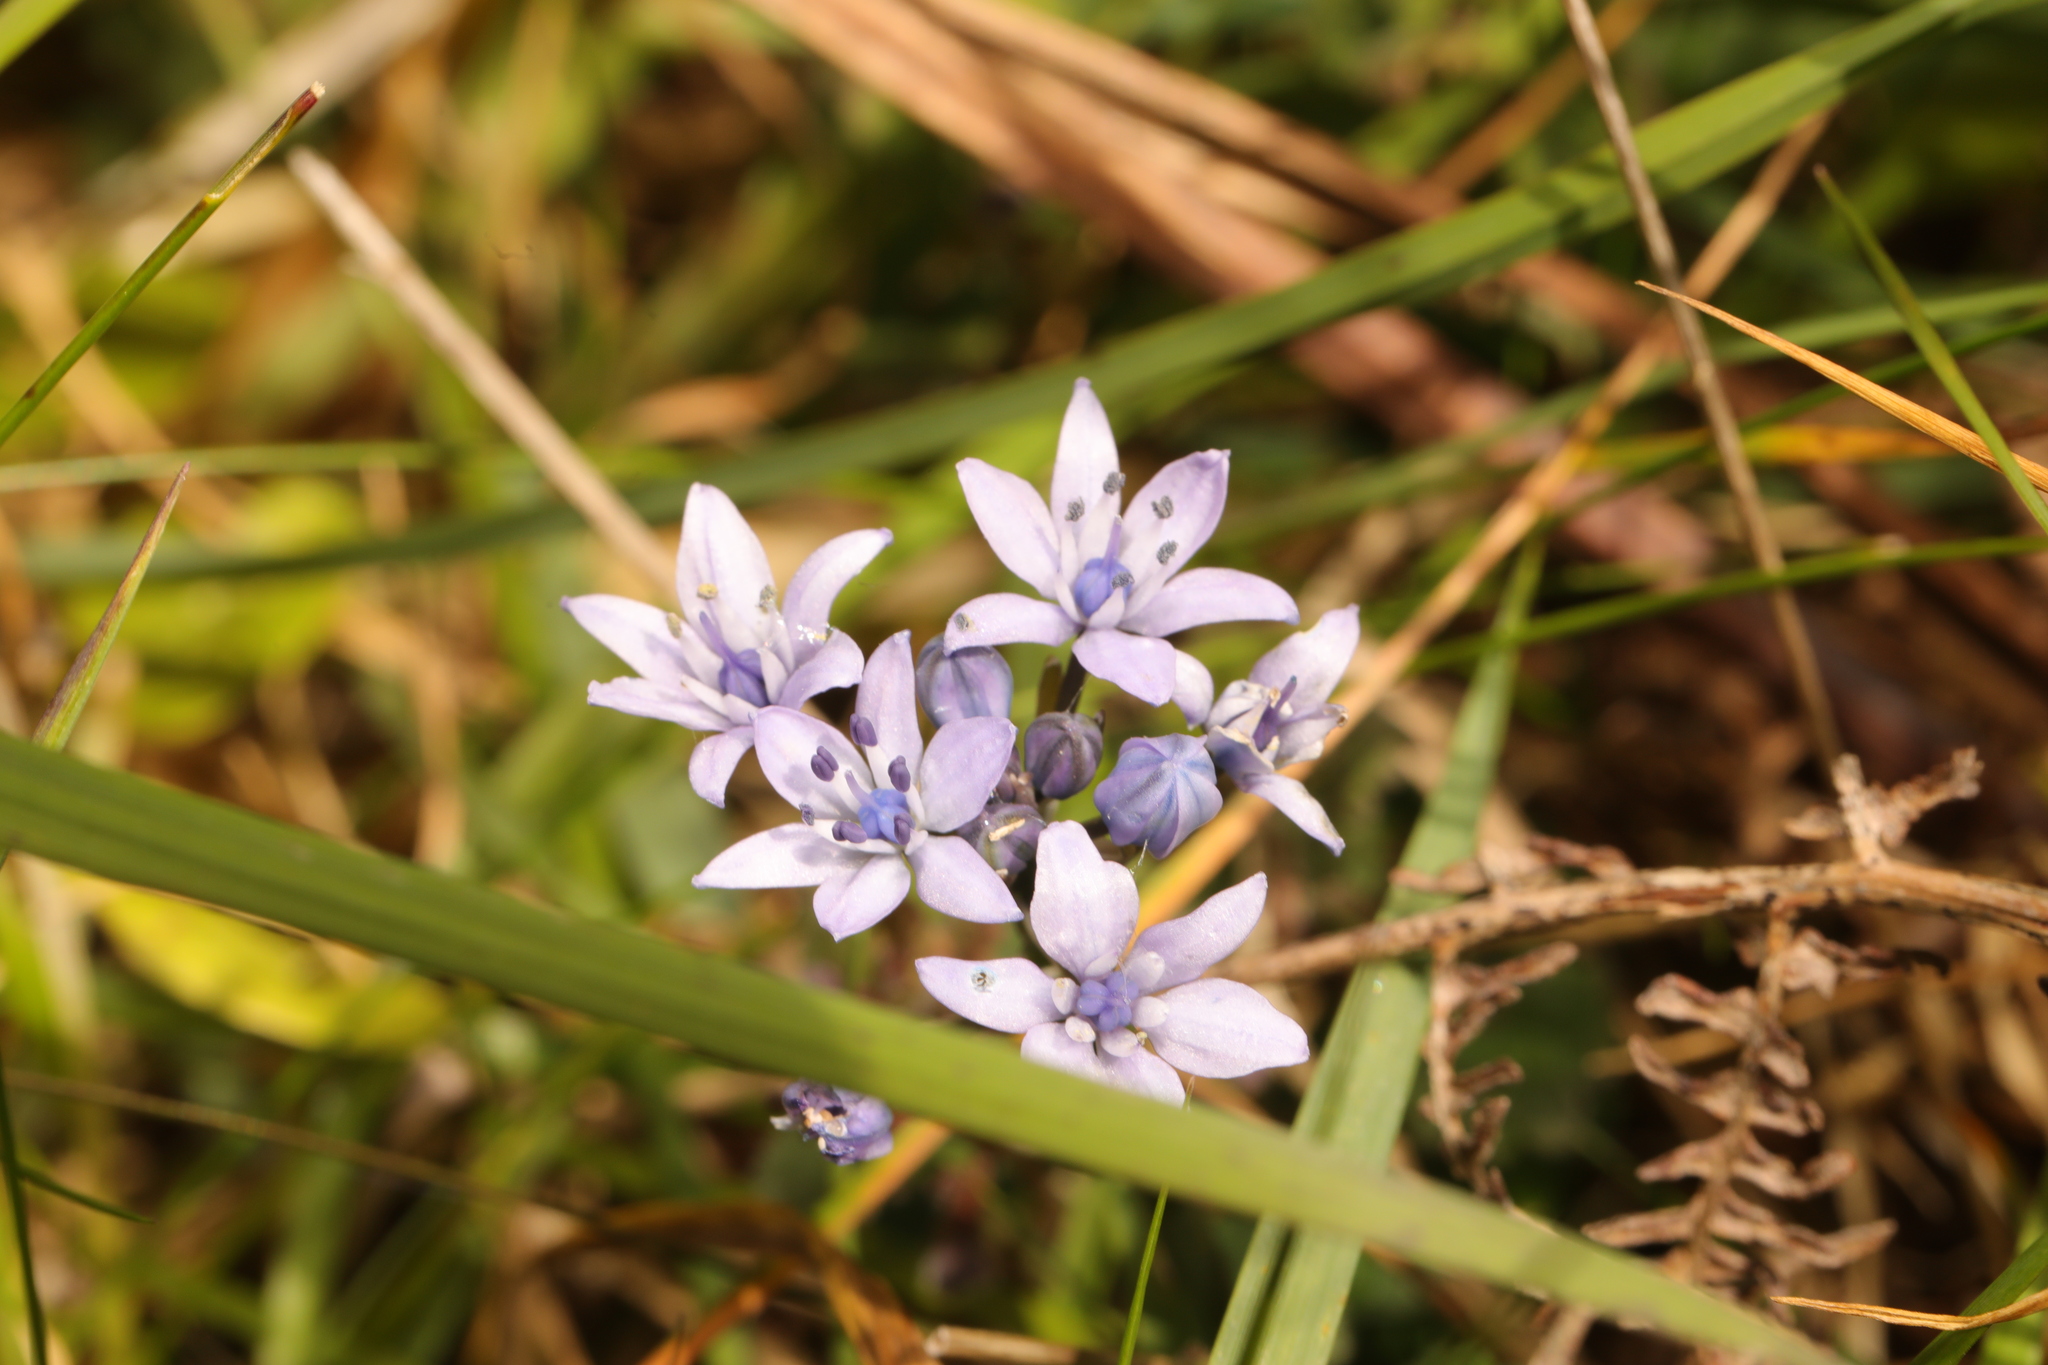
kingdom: Plantae
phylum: Tracheophyta
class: Liliopsida
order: Asparagales
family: Asparagaceae
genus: Scilla
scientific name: Scilla verna
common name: Spring squill
